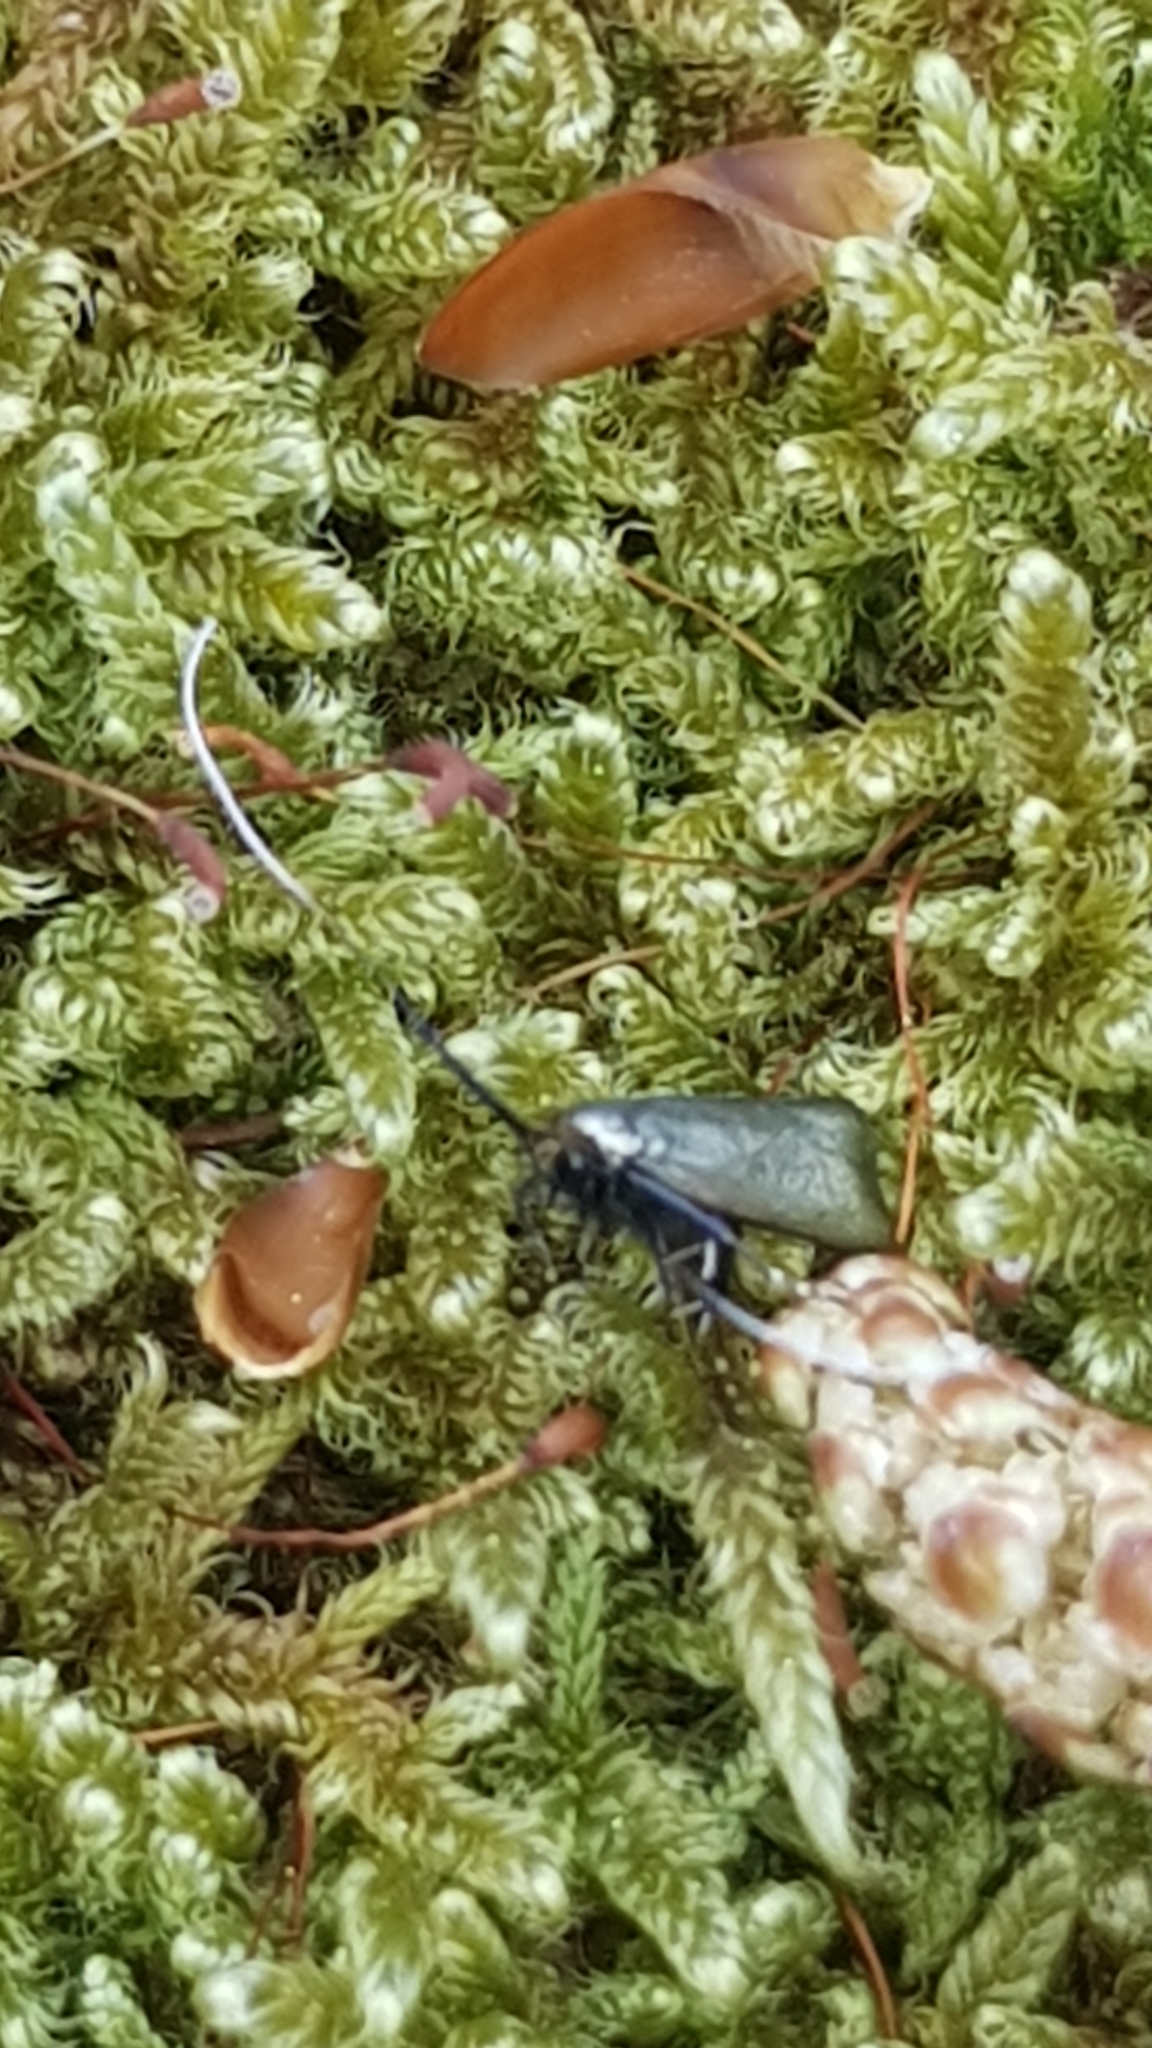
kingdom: Animalia
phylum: Arthropoda
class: Insecta
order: Lepidoptera
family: Adelidae
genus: Adela
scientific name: Adela viridella
